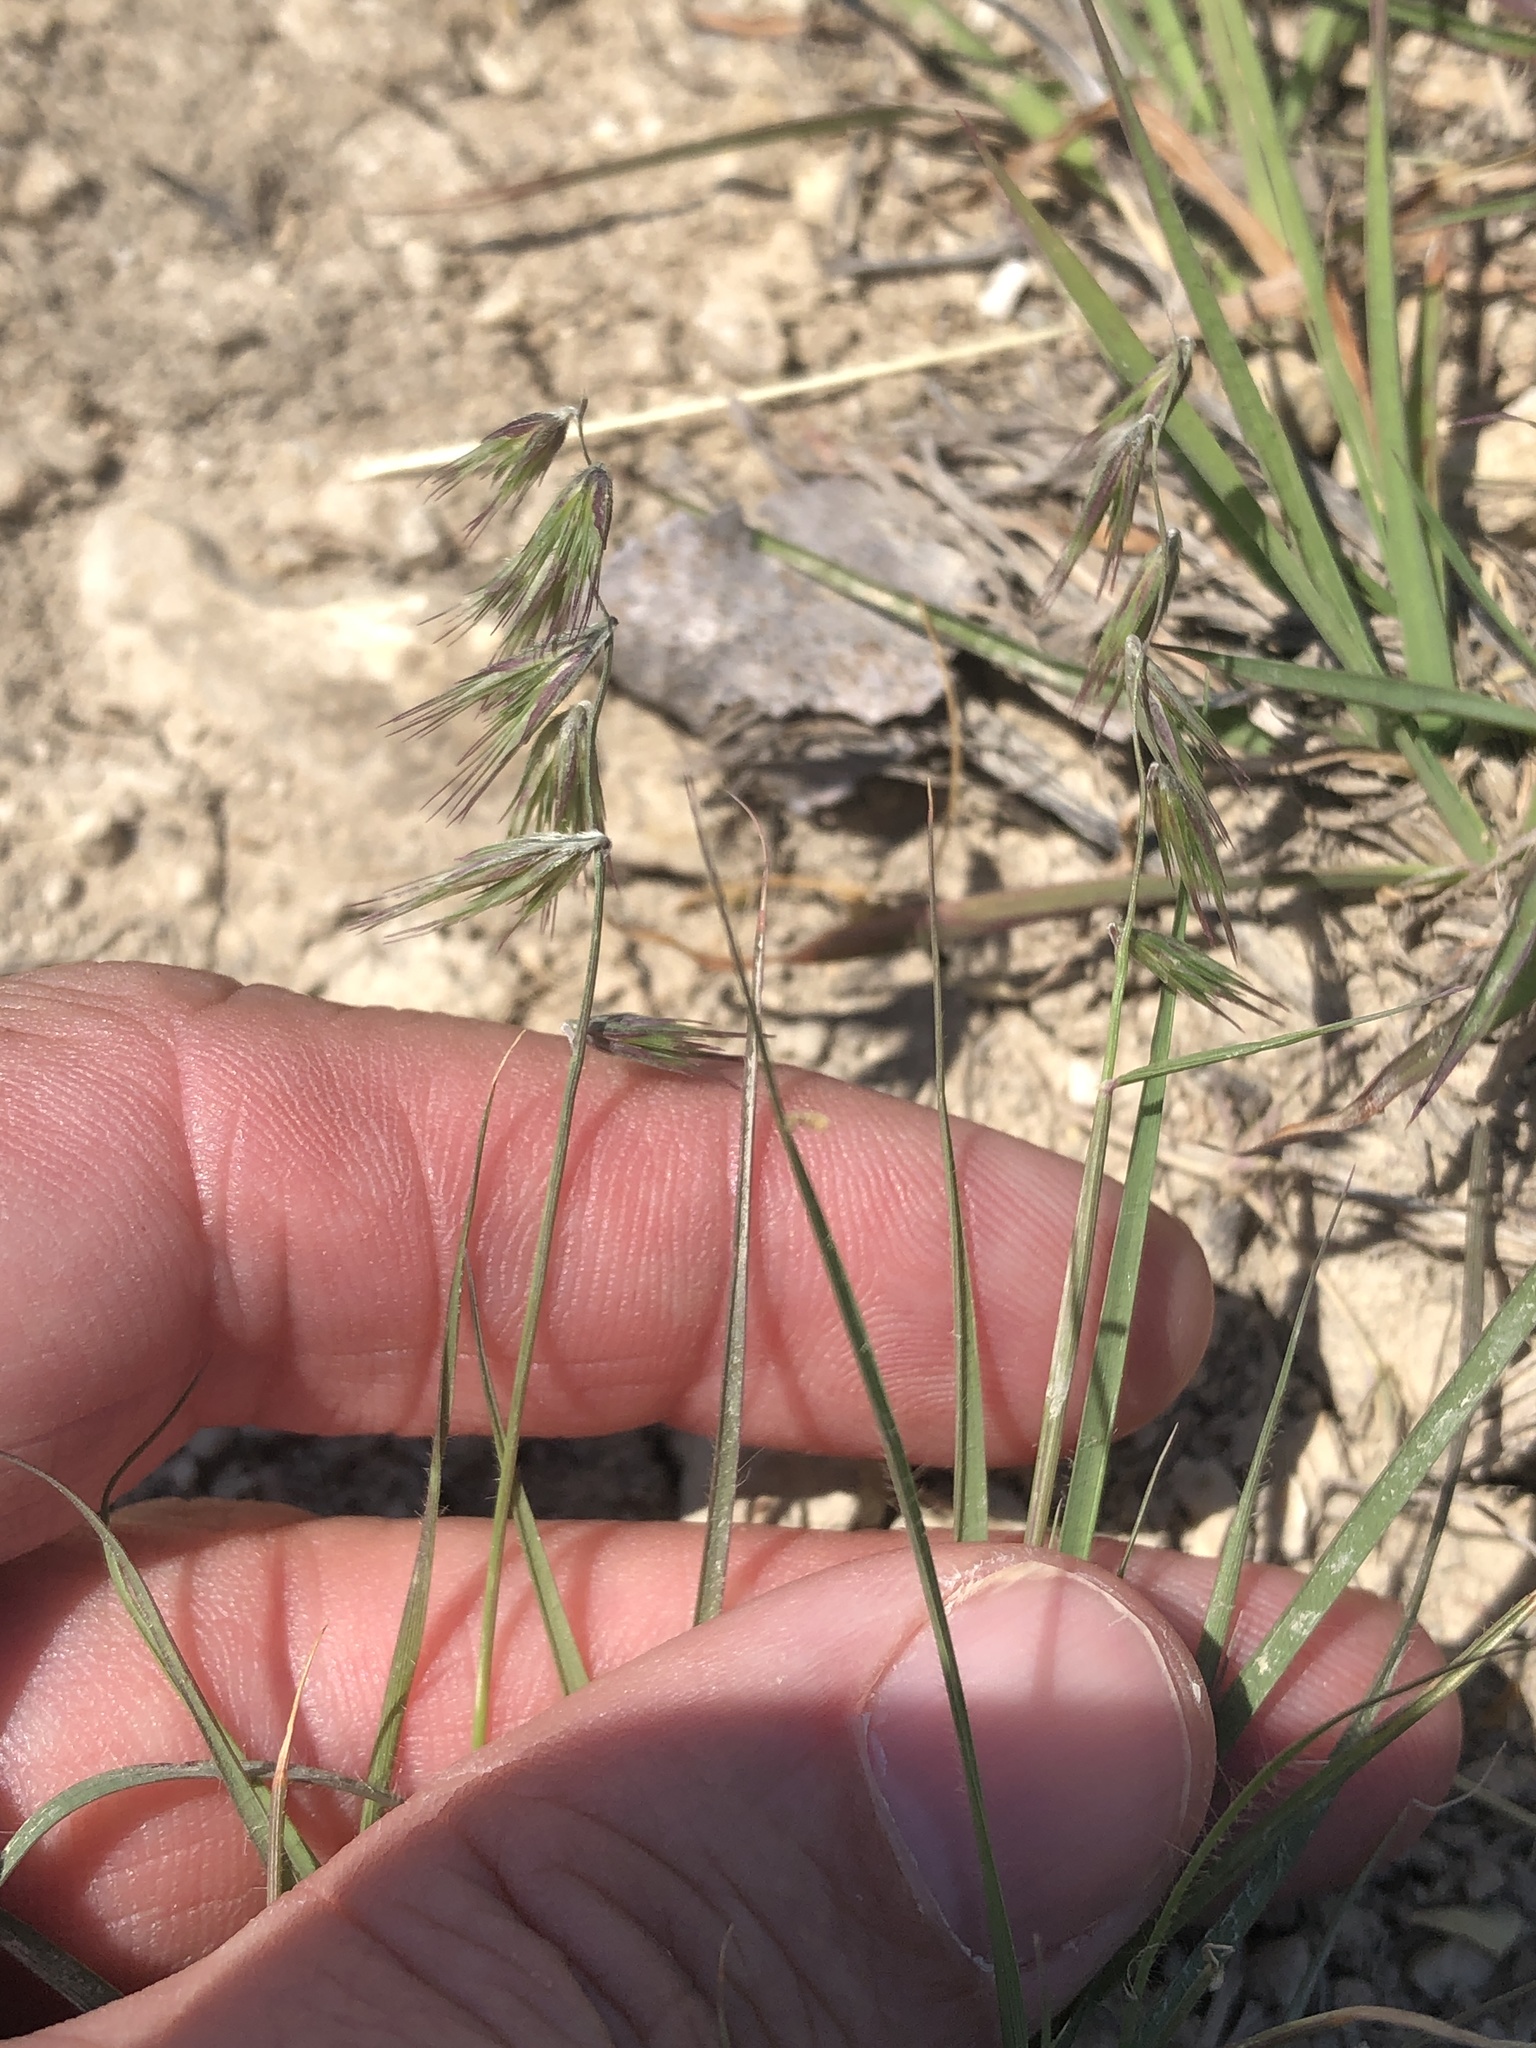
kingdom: Plantae
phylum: Tracheophyta
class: Liliopsida
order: Poales
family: Poaceae
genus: Bouteloua
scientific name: Bouteloua rigidiseta
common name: Texas grama
